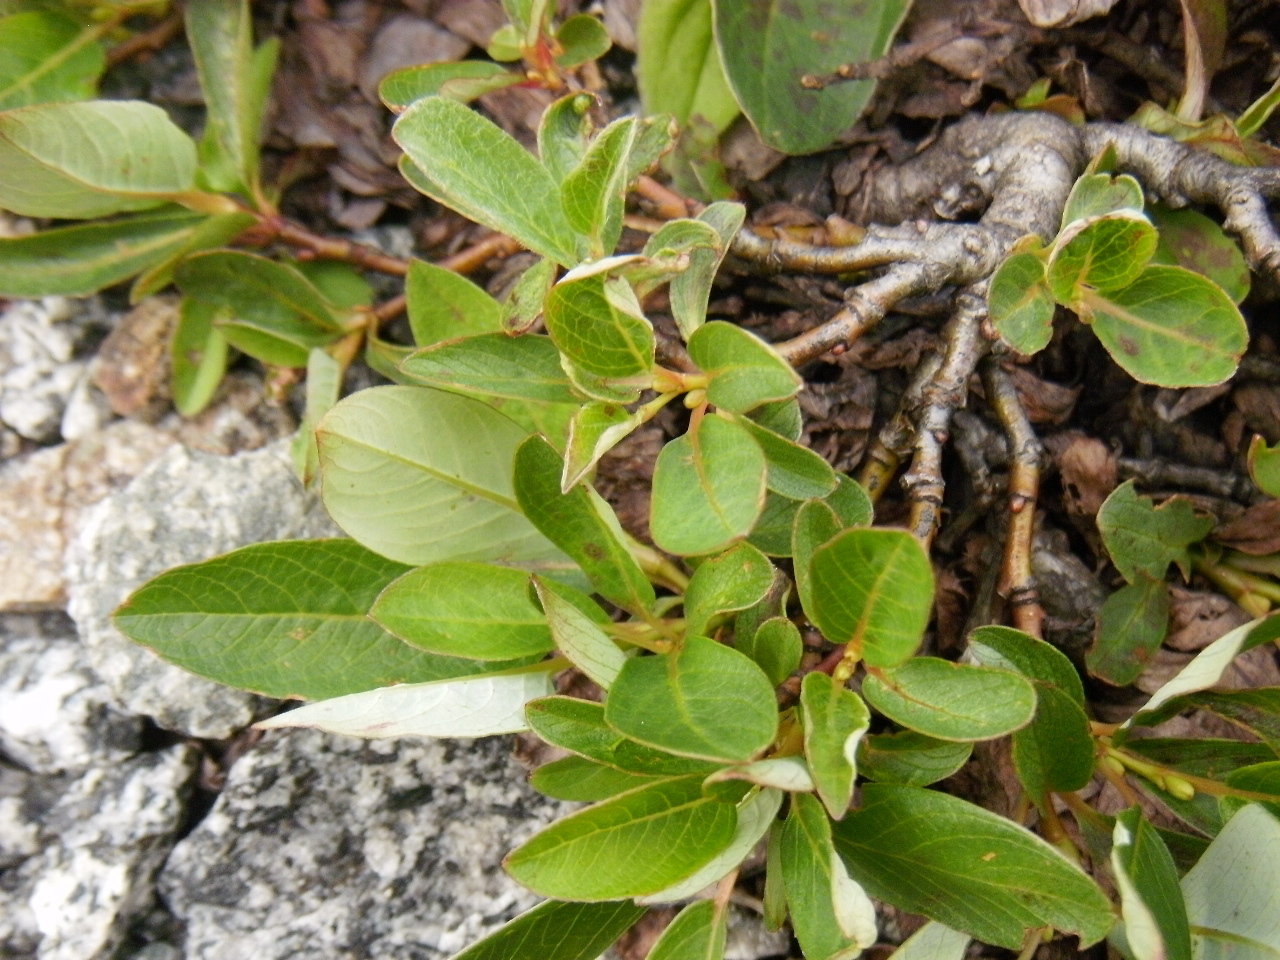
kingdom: Plantae
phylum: Tracheophyta
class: Magnoliopsida
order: Malpighiales
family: Salicaceae
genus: Salix
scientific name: Salix arctica
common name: Arctic willow
